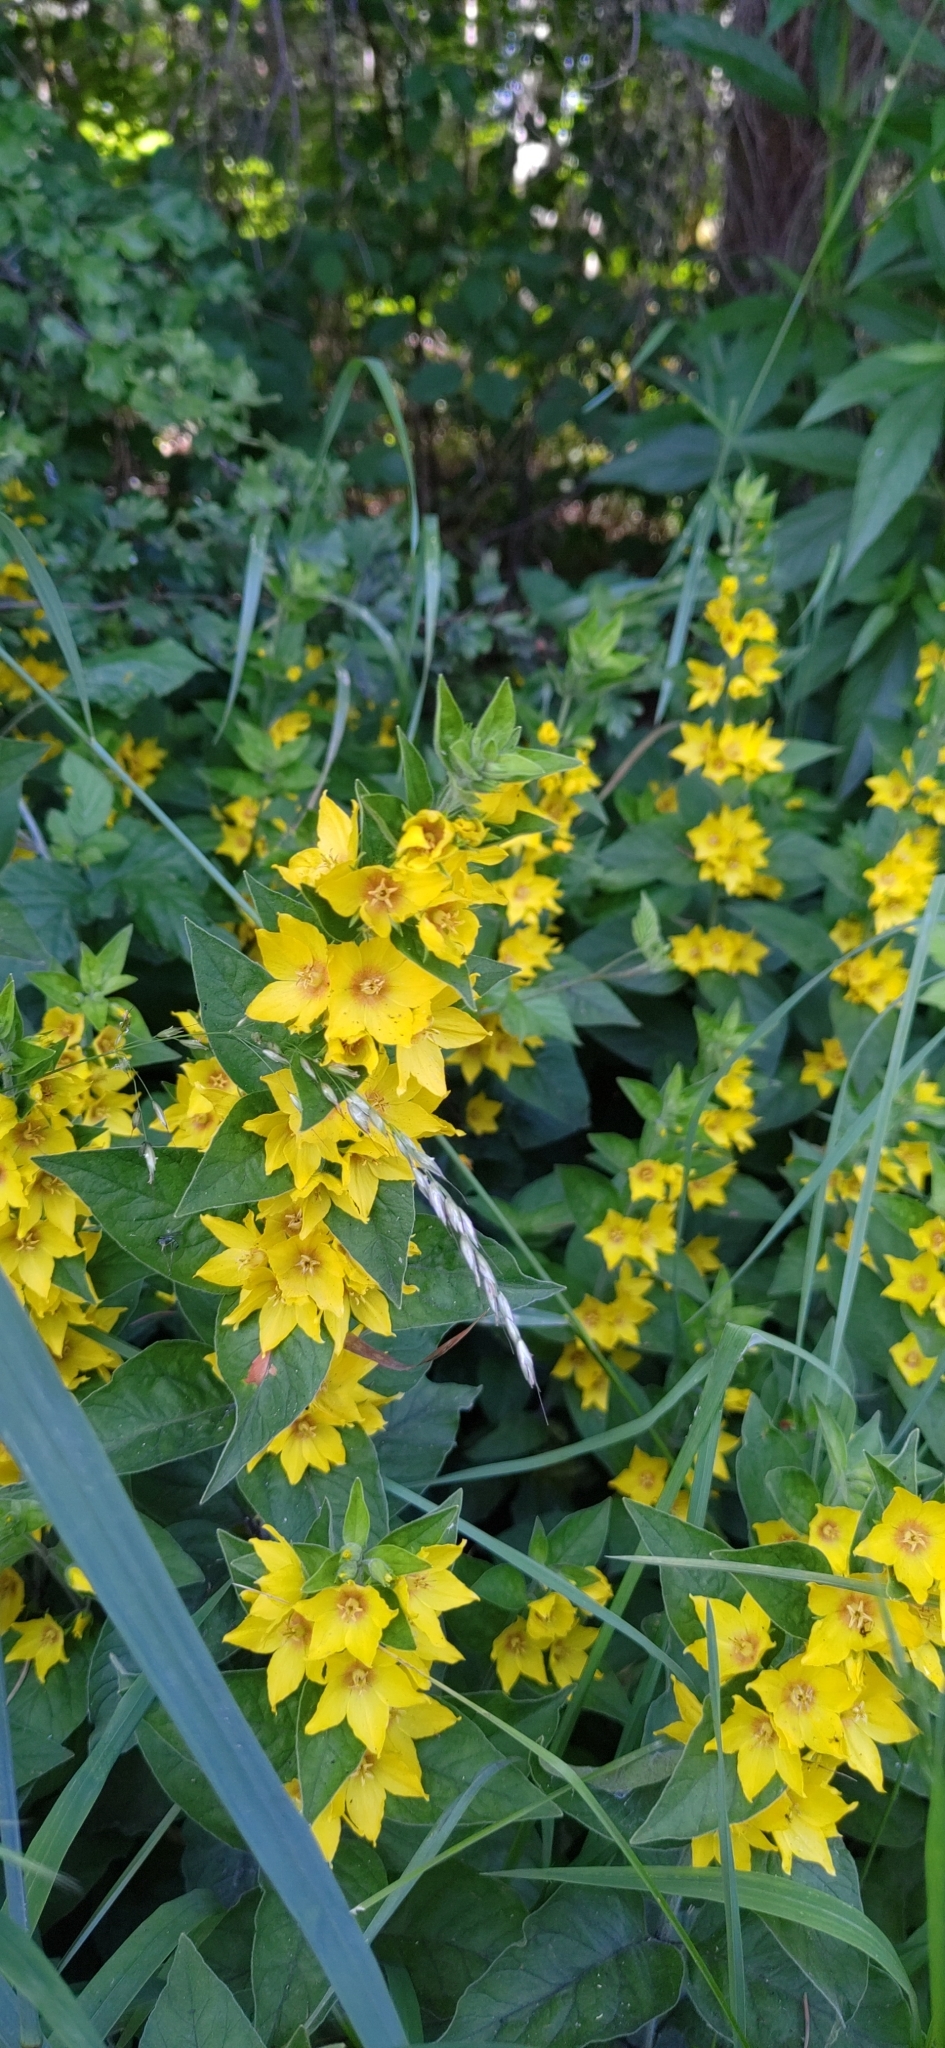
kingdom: Plantae
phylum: Tracheophyta
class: Magnoliopsida
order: Ericales
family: Primulaceae
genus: Lysimachia
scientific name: Lysimachia punctata
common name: Dotted loosestrife
